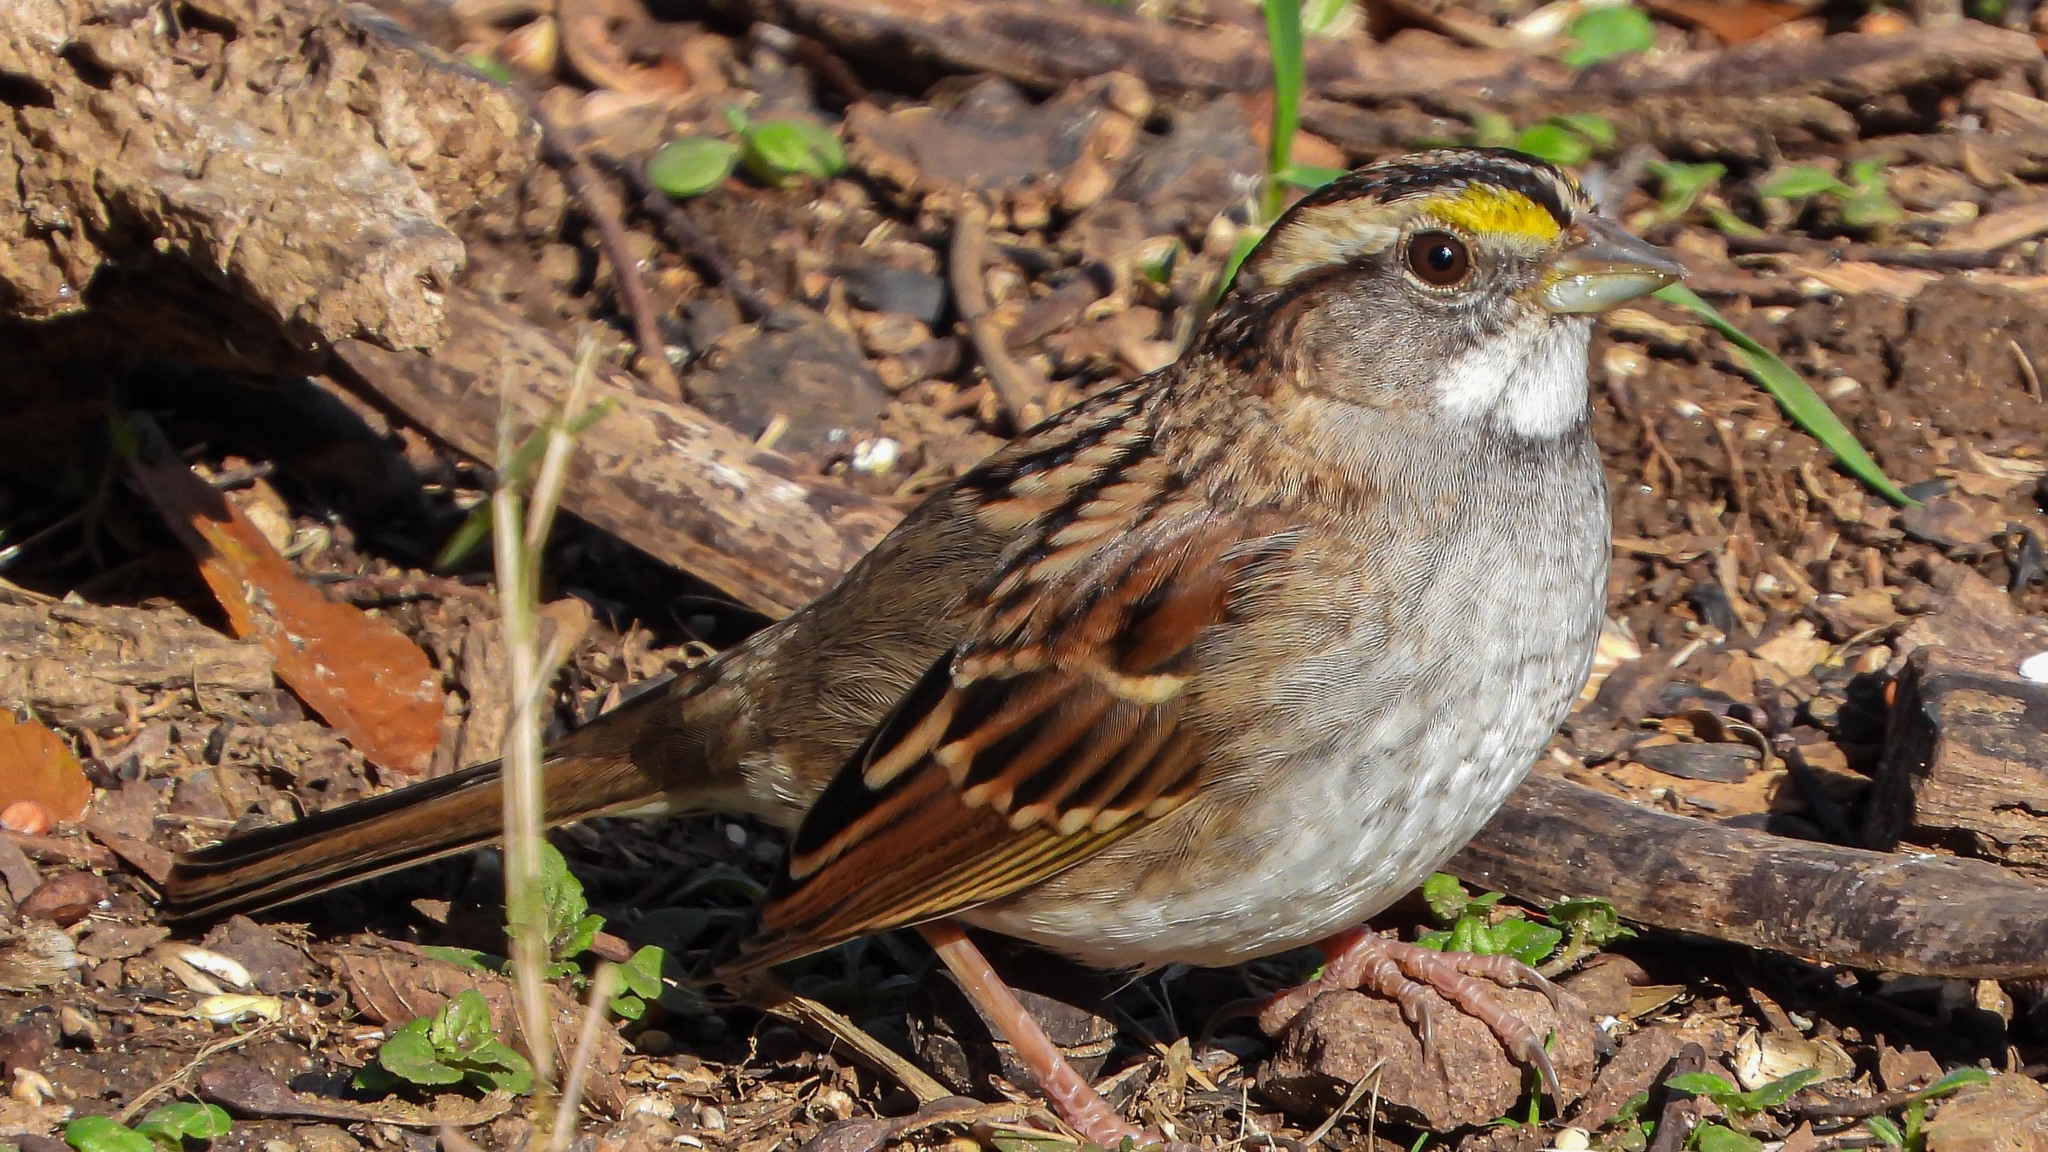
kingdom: Animalia
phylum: Chordata
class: Aves
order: Passeriformes
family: Passerellidae
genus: Zonotrichia
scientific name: Zonotrichia albicollis
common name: White-throated sparrow
